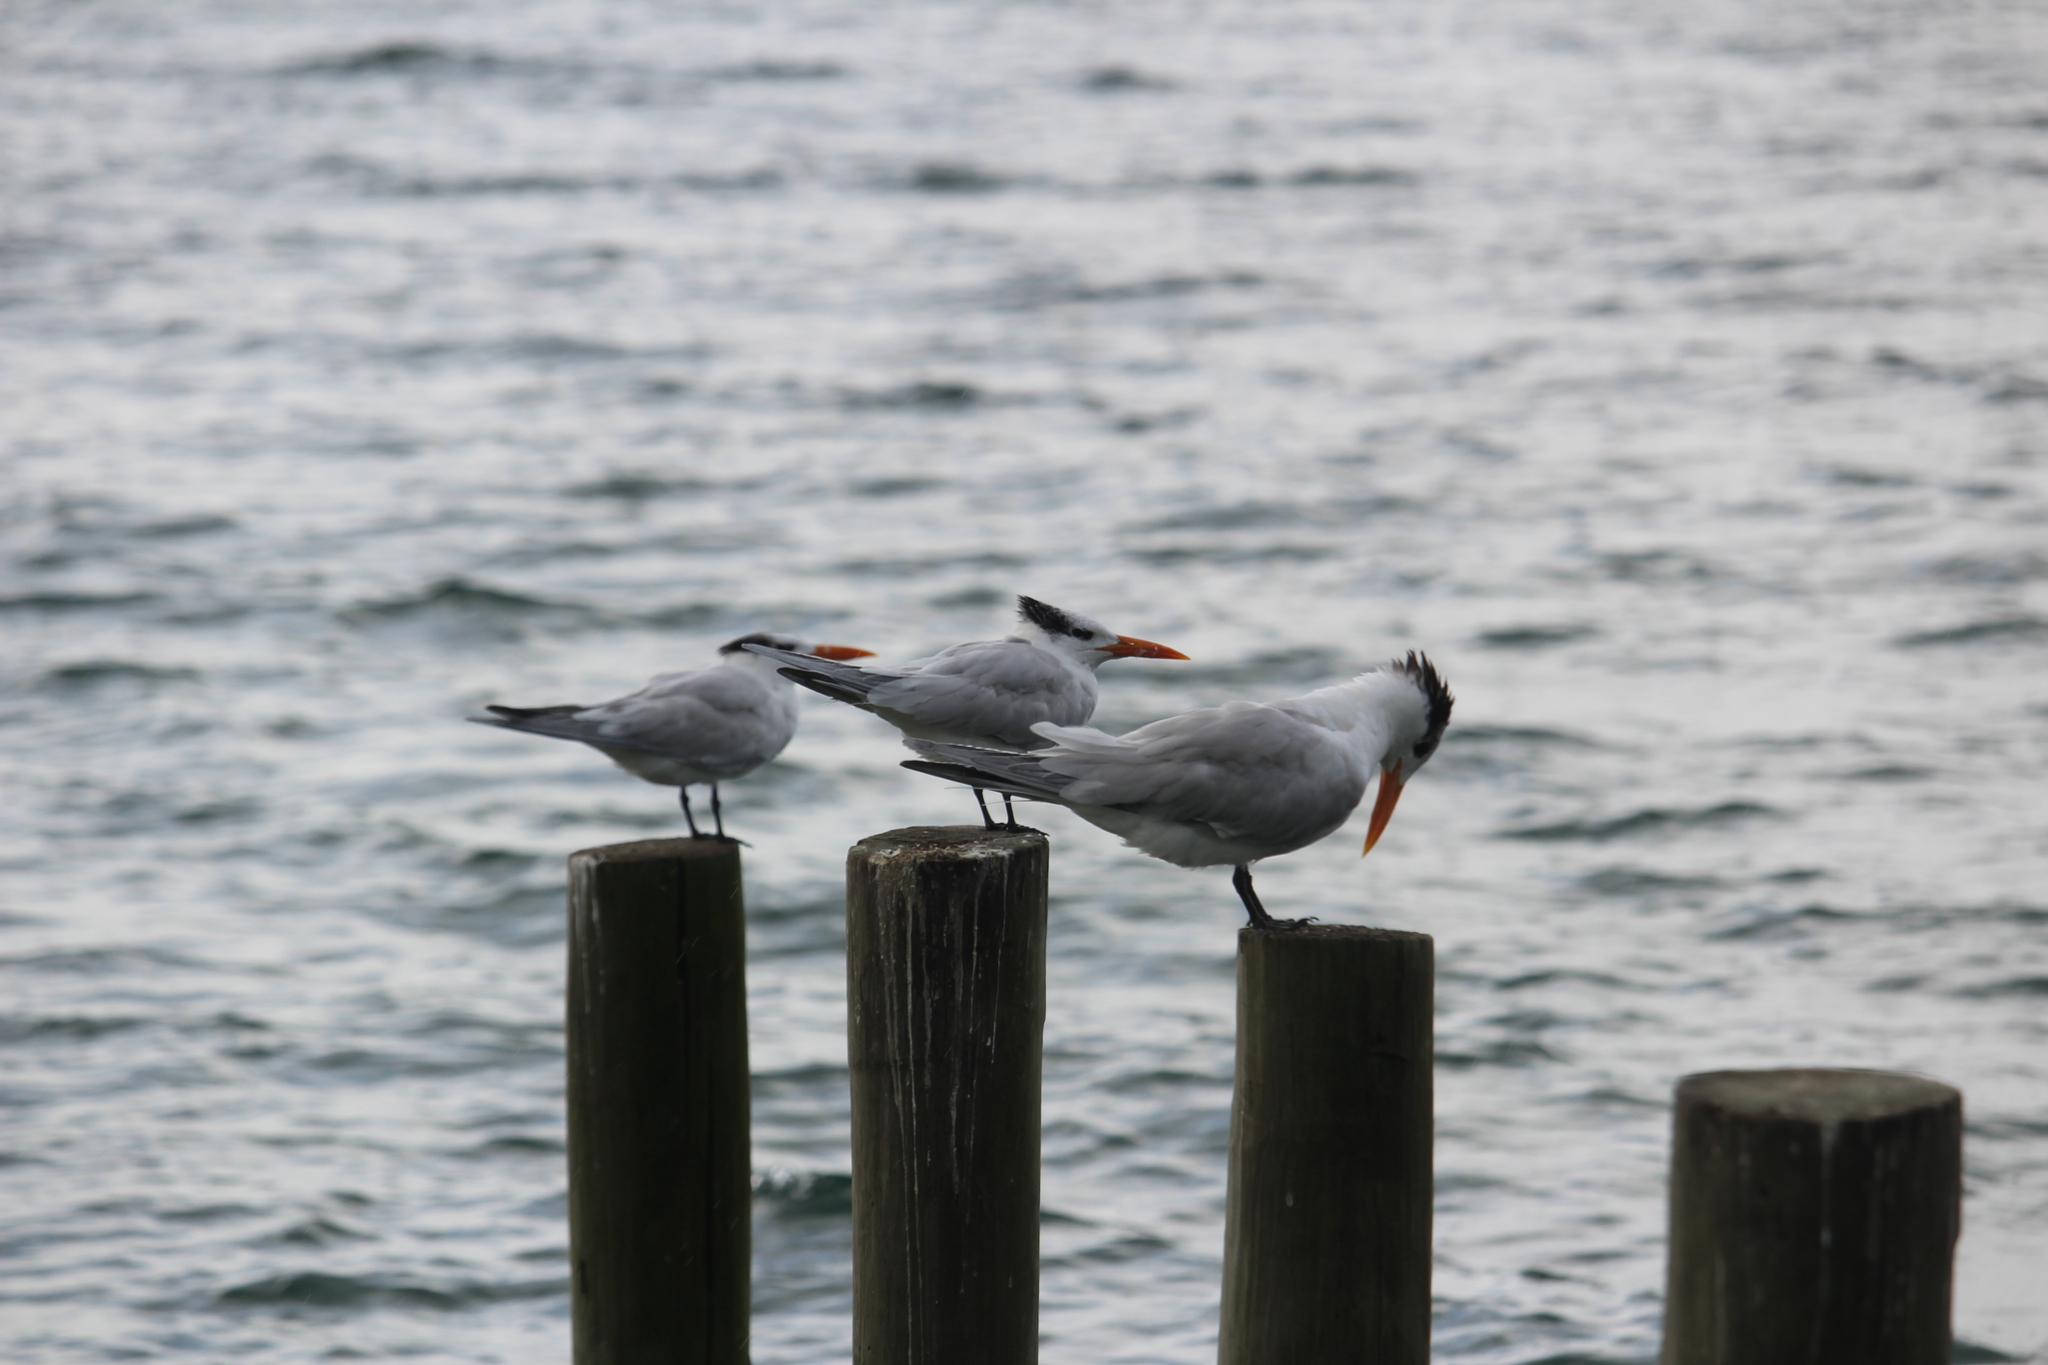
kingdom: Animalia
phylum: Chordata
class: Aves
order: Charadriiformes
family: Laridae
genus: Thalasseus
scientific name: Thalasseus maximus
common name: Royal tern
